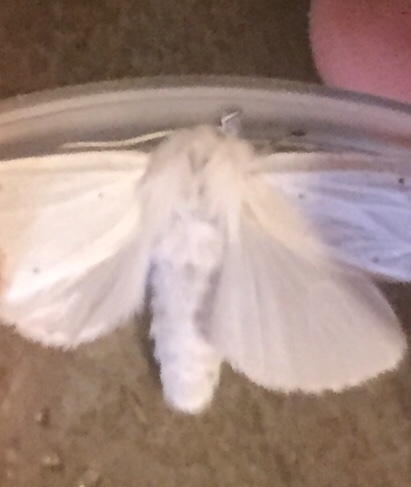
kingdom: Animalia
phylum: Arthropoda
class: Insecta
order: Lepidoptera
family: Erebidae
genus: Spilosoma
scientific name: Spilosoma congrua
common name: Agreeable tiger moth
